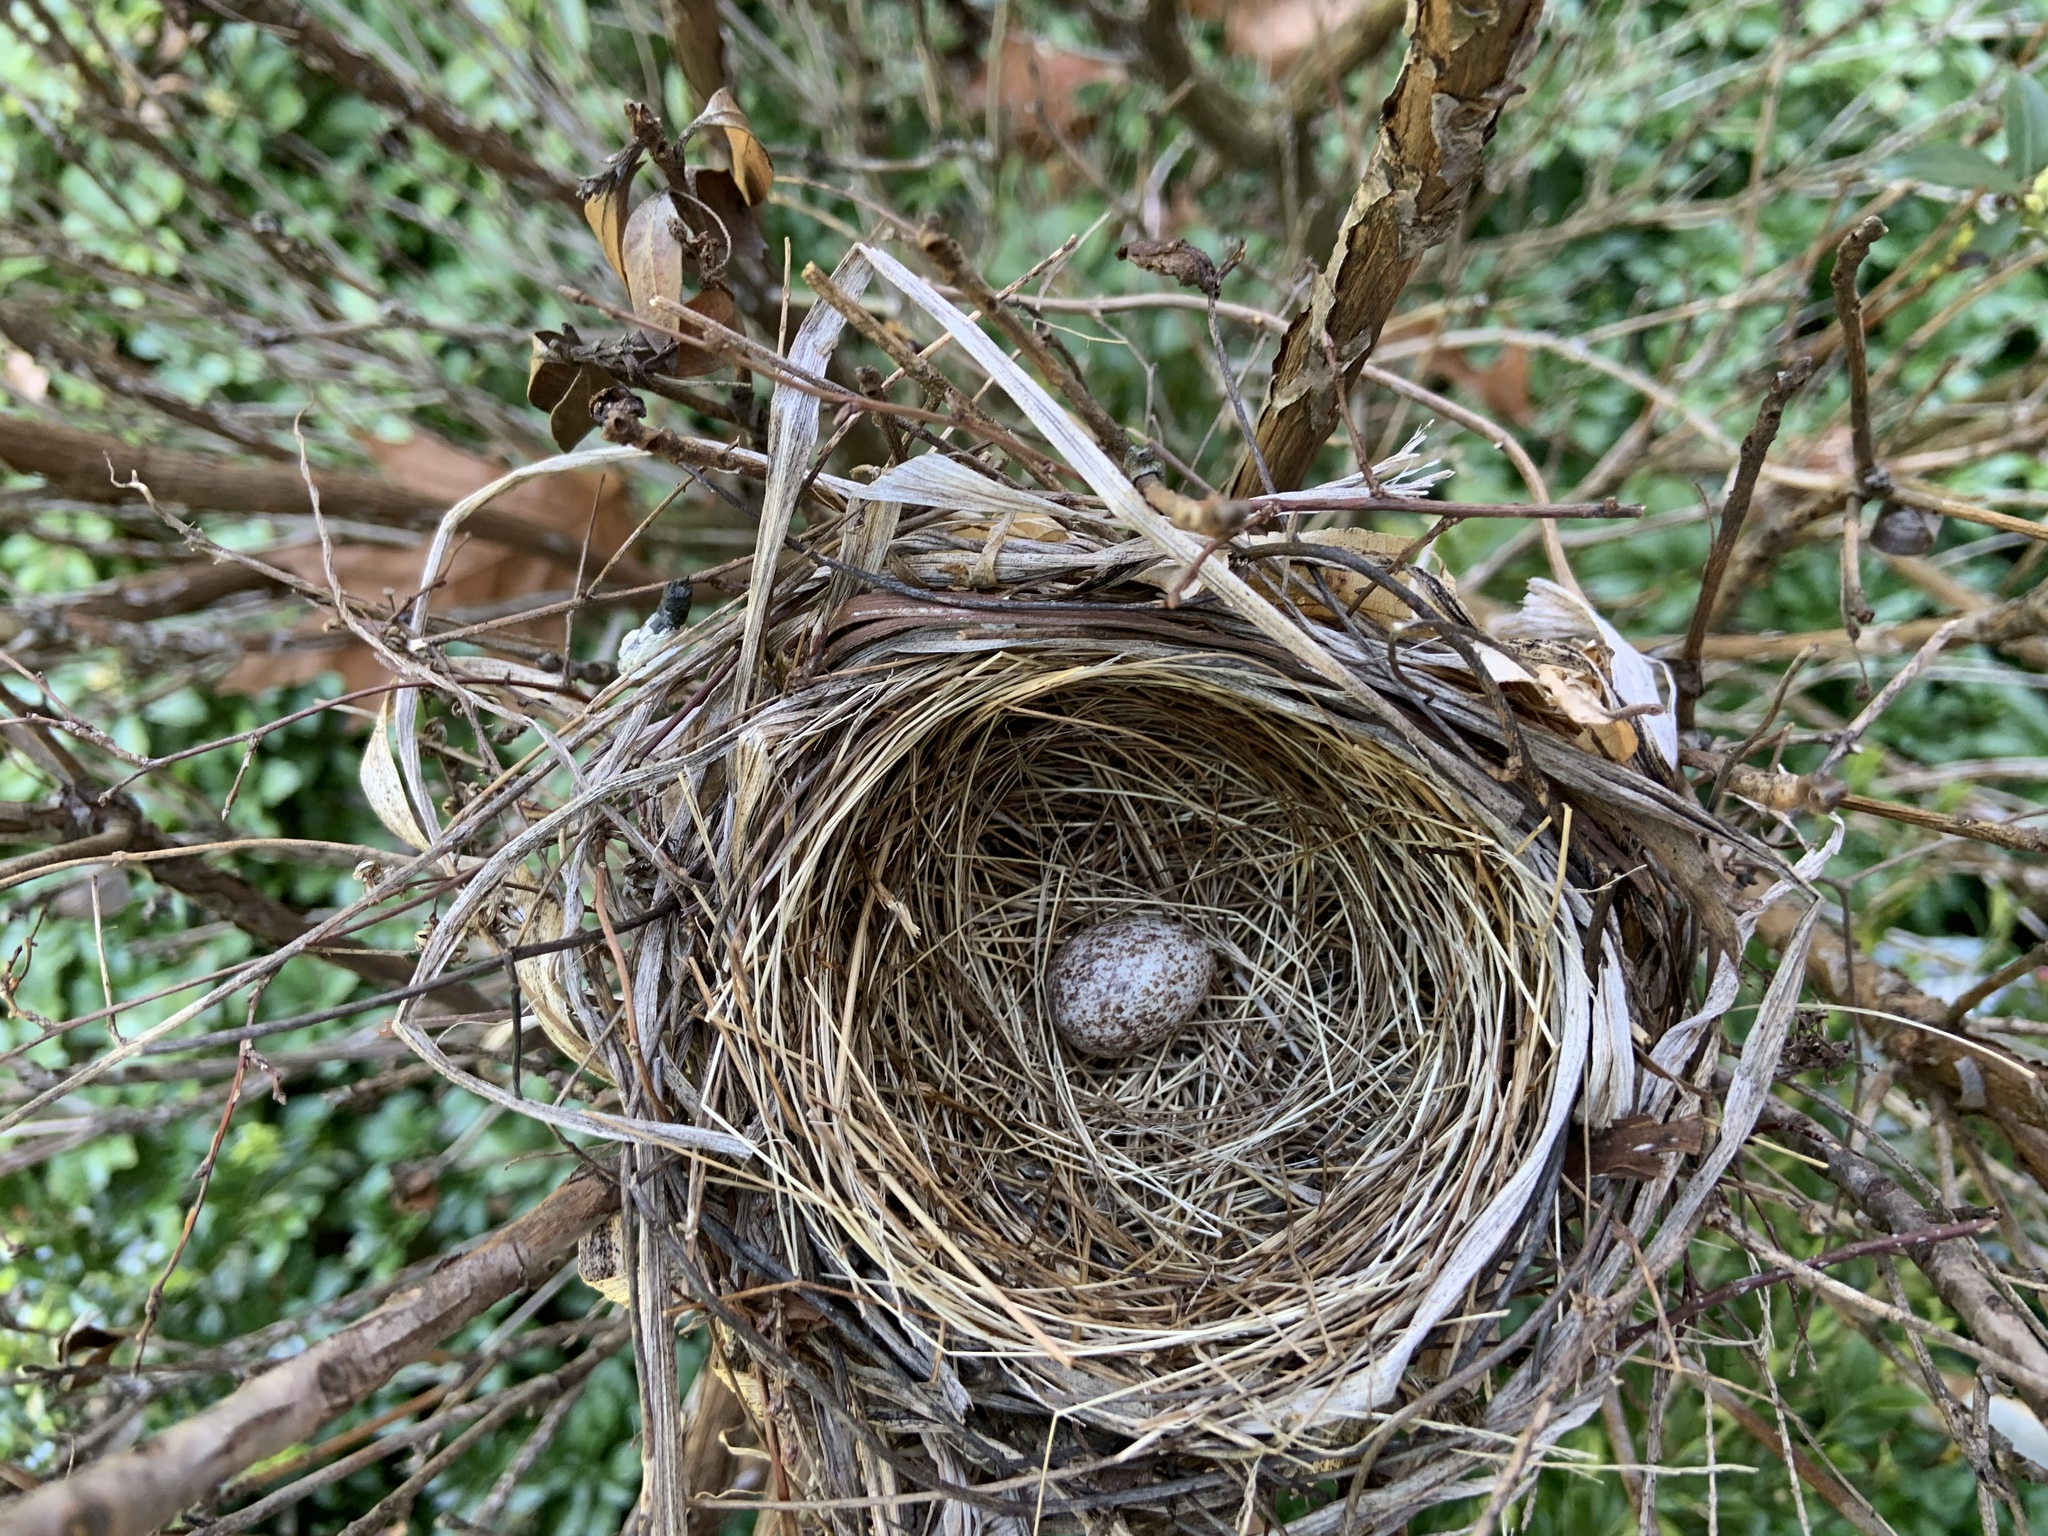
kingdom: Animalia
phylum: Chordata
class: Aves
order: Passeriformes
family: Cardinalidae
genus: Cardinalis
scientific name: Cardinalis cardinalis
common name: Northern cardinal
